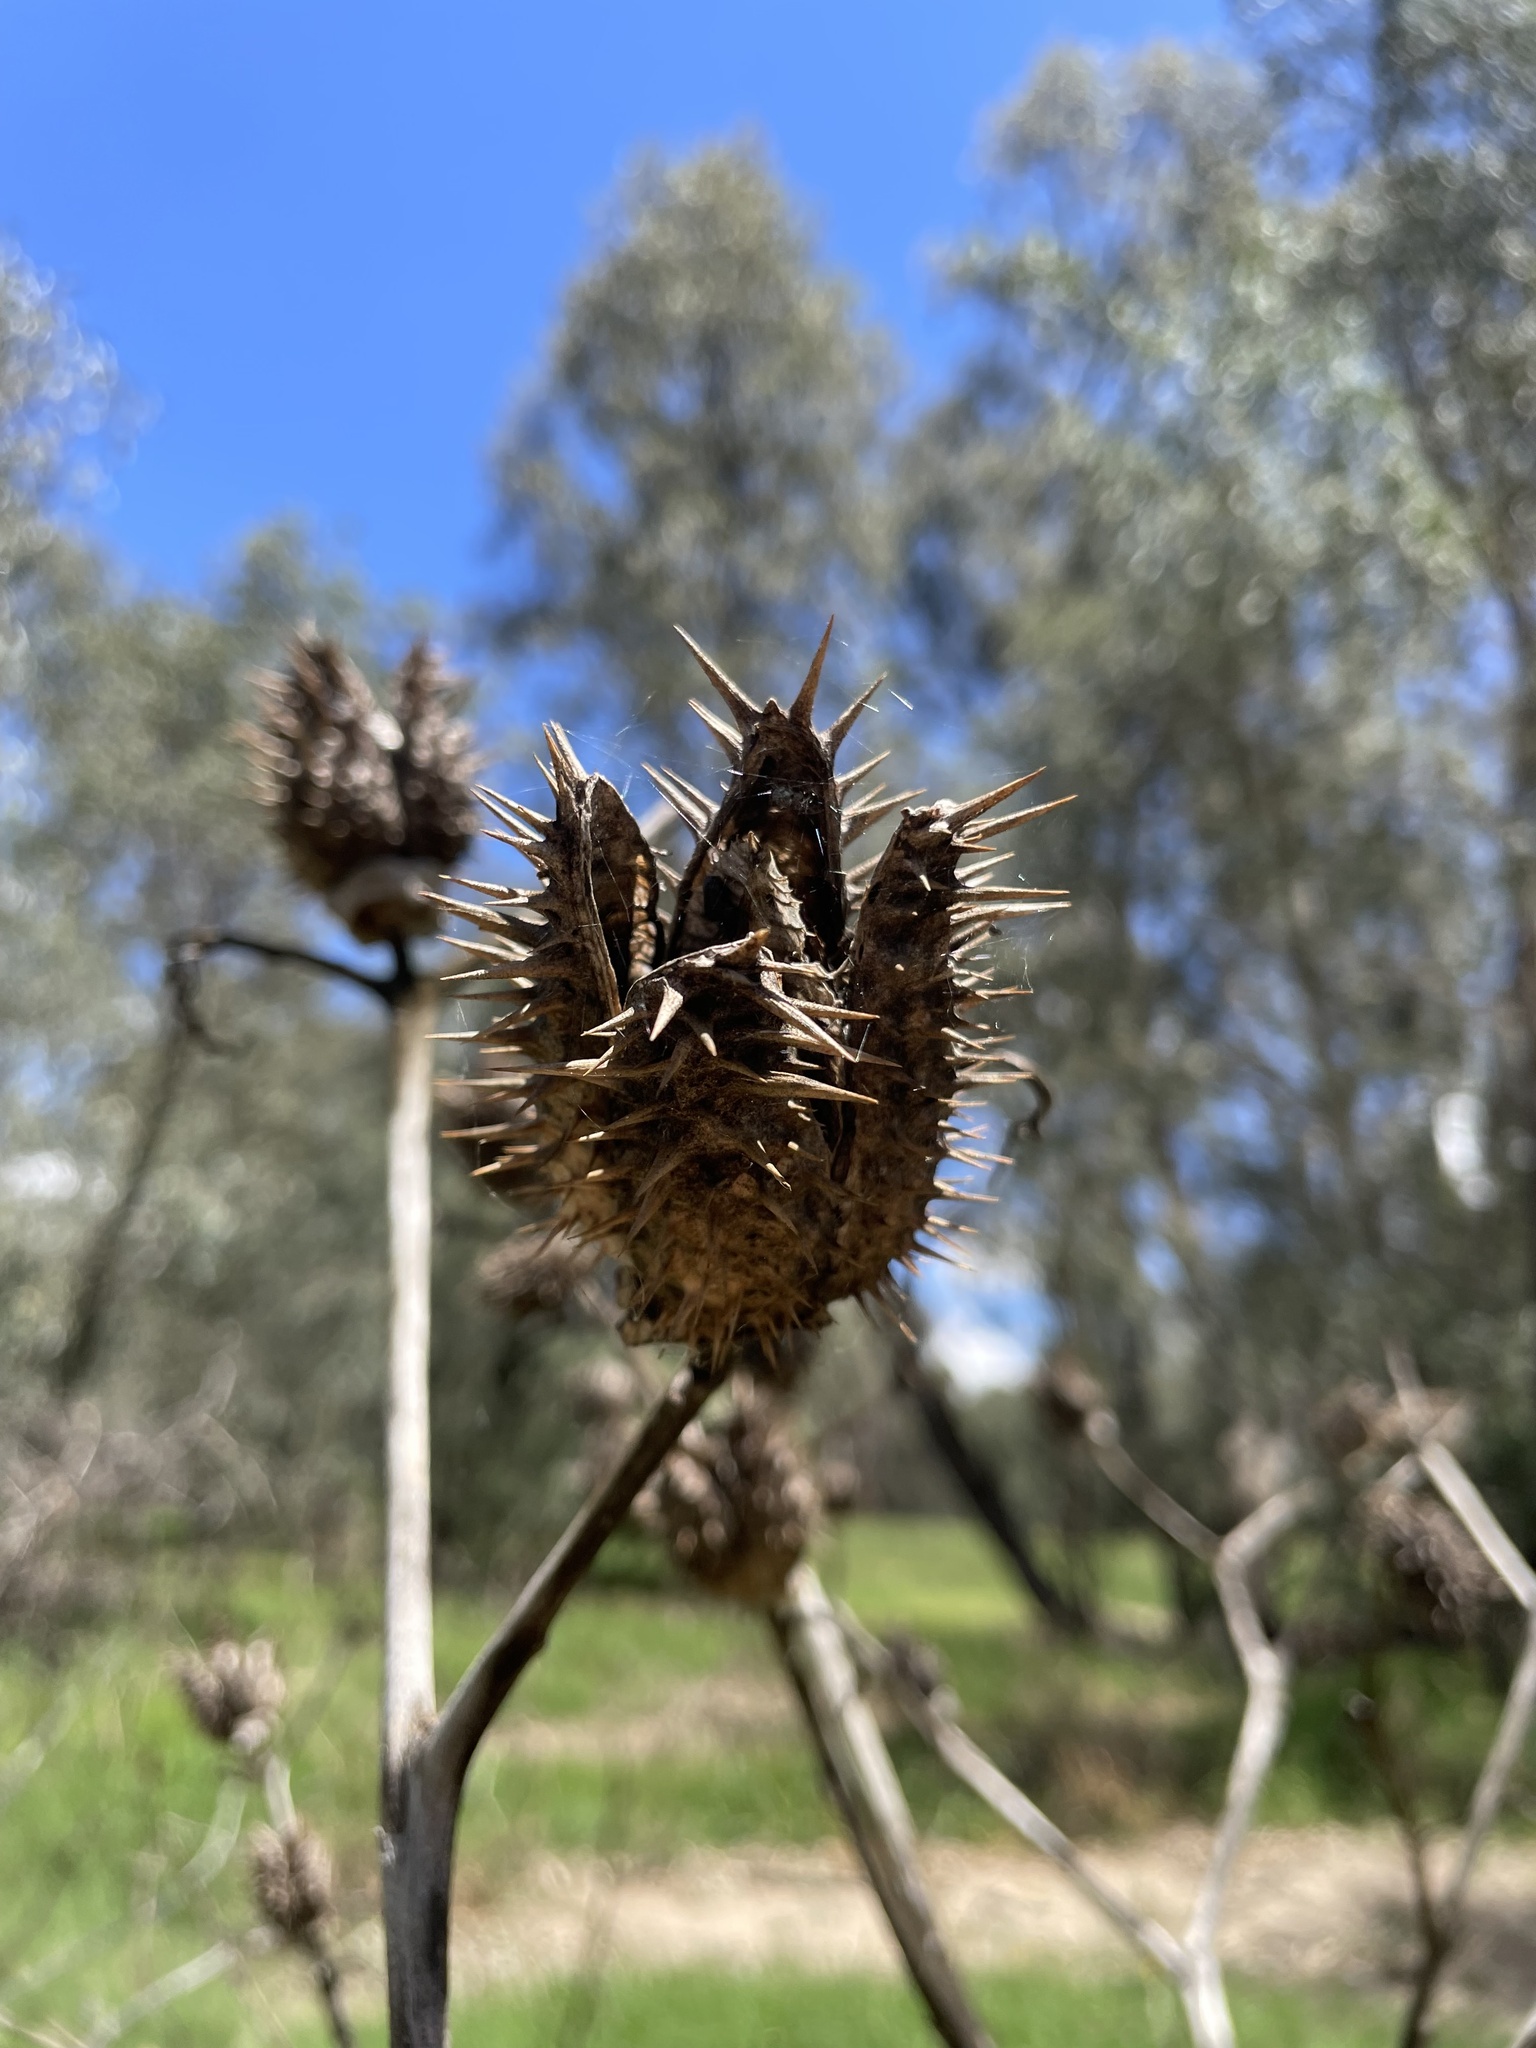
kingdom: Plantae
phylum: Tracheophyta
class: Magnoliopsida
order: Solanales
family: Solanaceae
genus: Datura
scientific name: Datura stramonium
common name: Thorn-apple
